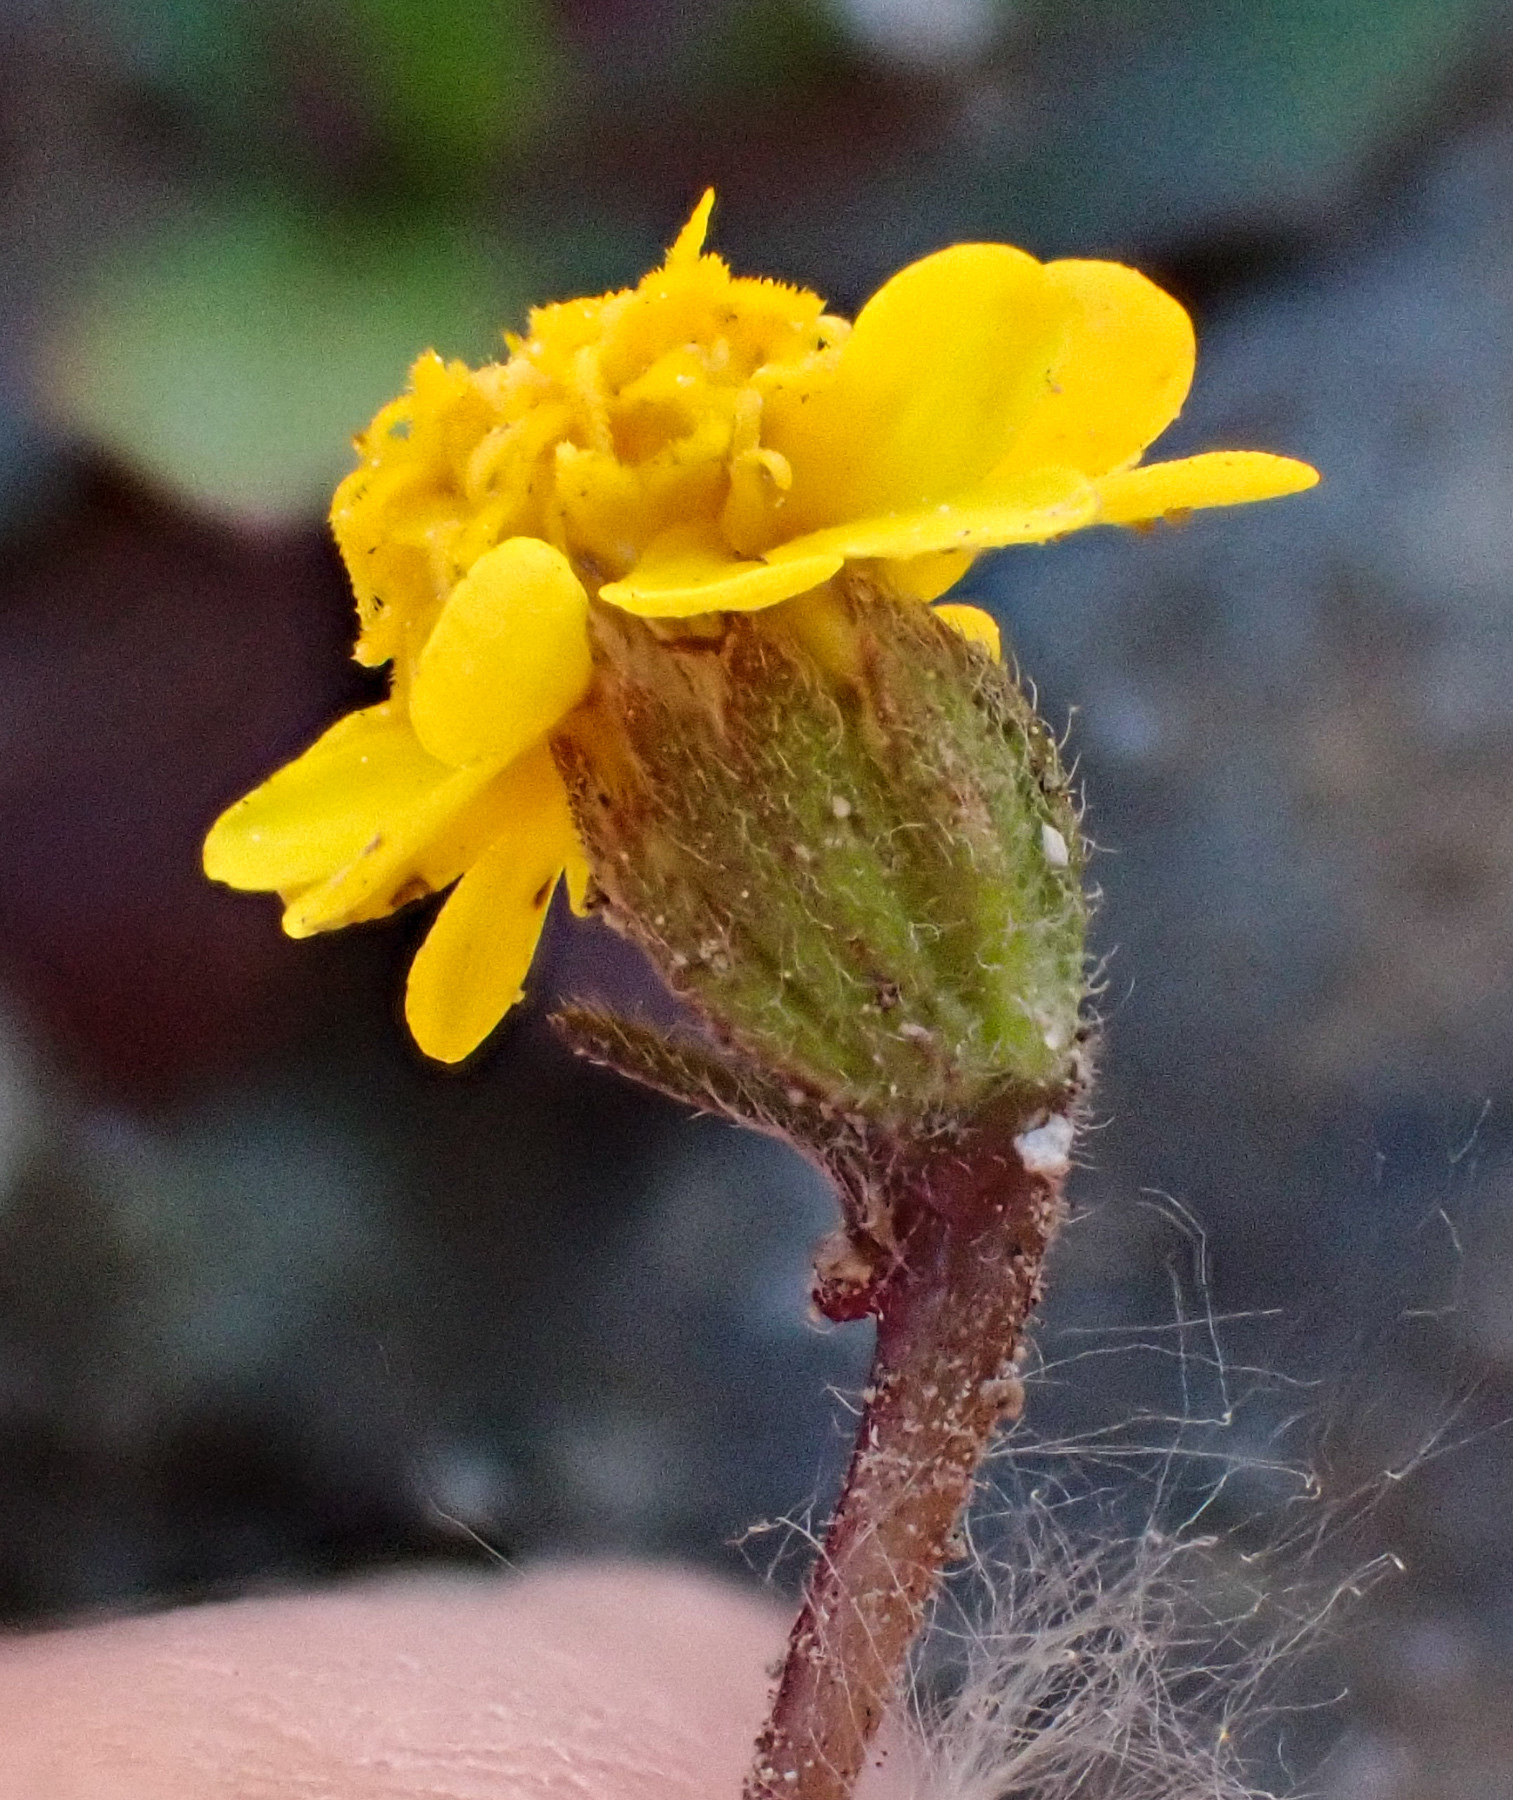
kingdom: Plantae
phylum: Tracheophyta
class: Magnoliopsida
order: Asterales
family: Asteraceae
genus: Layia
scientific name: Layia septentrionalis
